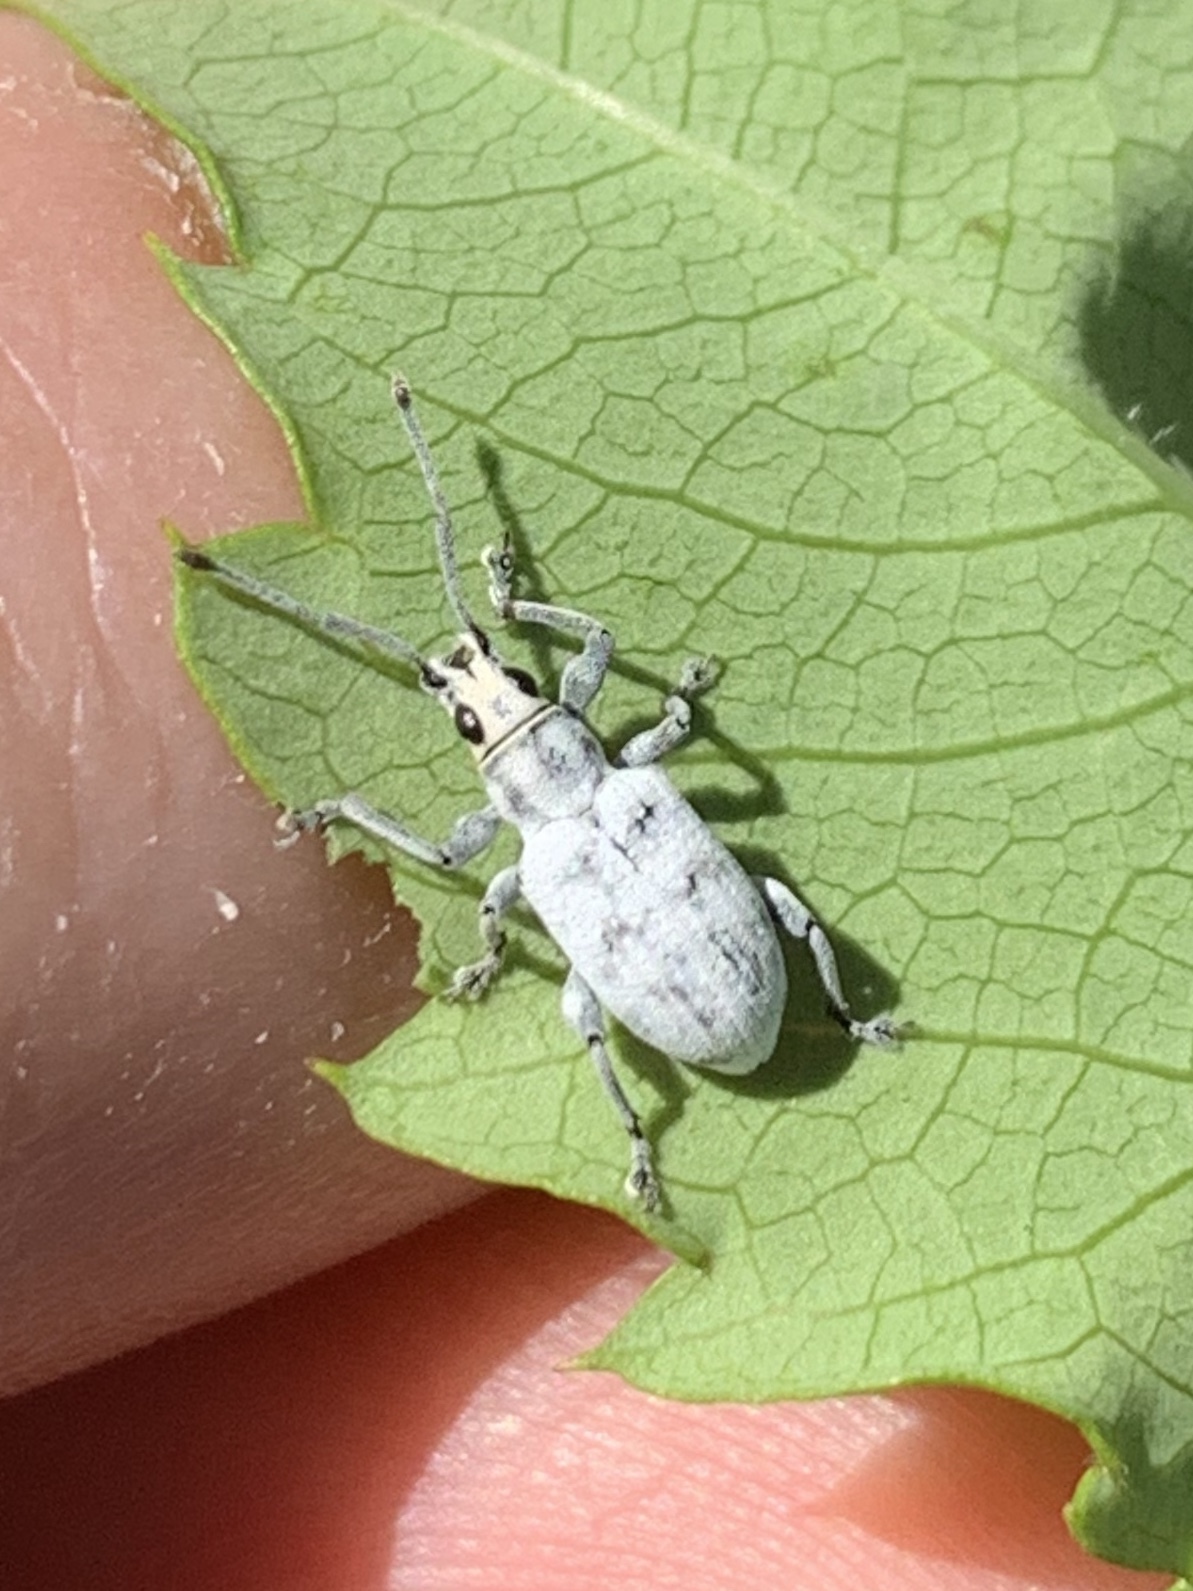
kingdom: Animalia
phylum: Arthropoda
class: Insecta
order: Coleoptera
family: Curculionidae
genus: Myllocerus
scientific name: Myllocerus undecimpustulatus
